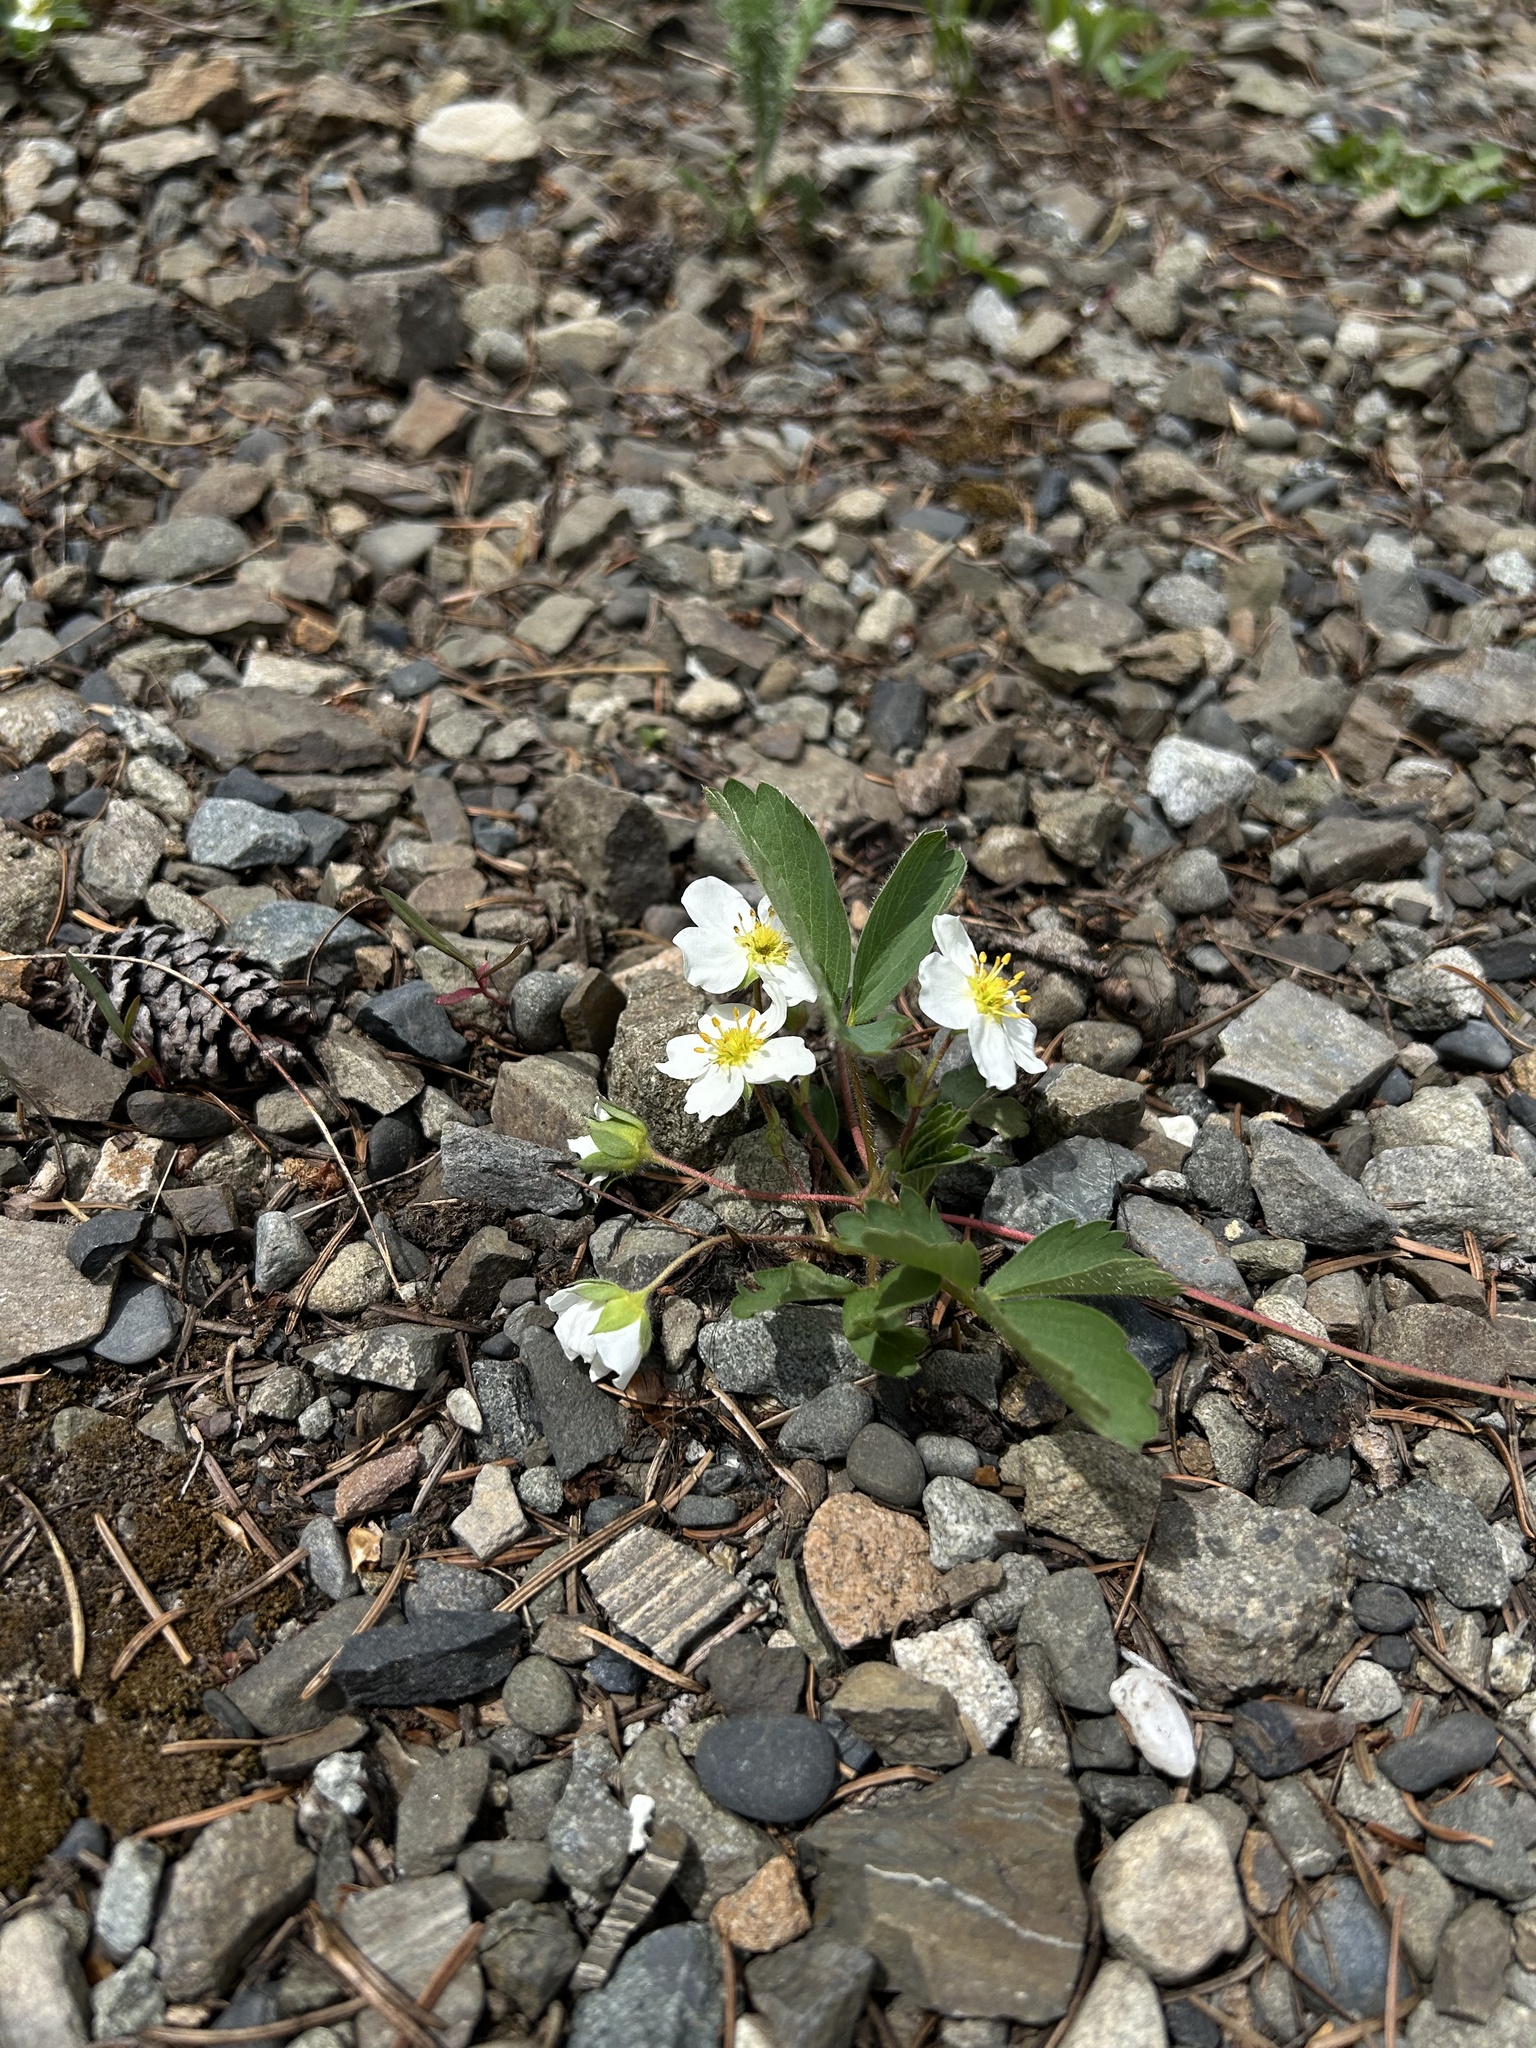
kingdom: Plantae
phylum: Tracheophyta
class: Magnoliopsida
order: Rosales
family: Rosaceae
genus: Fragaria
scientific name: Fragaria virginiana
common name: Thickleaved wild strawberry
